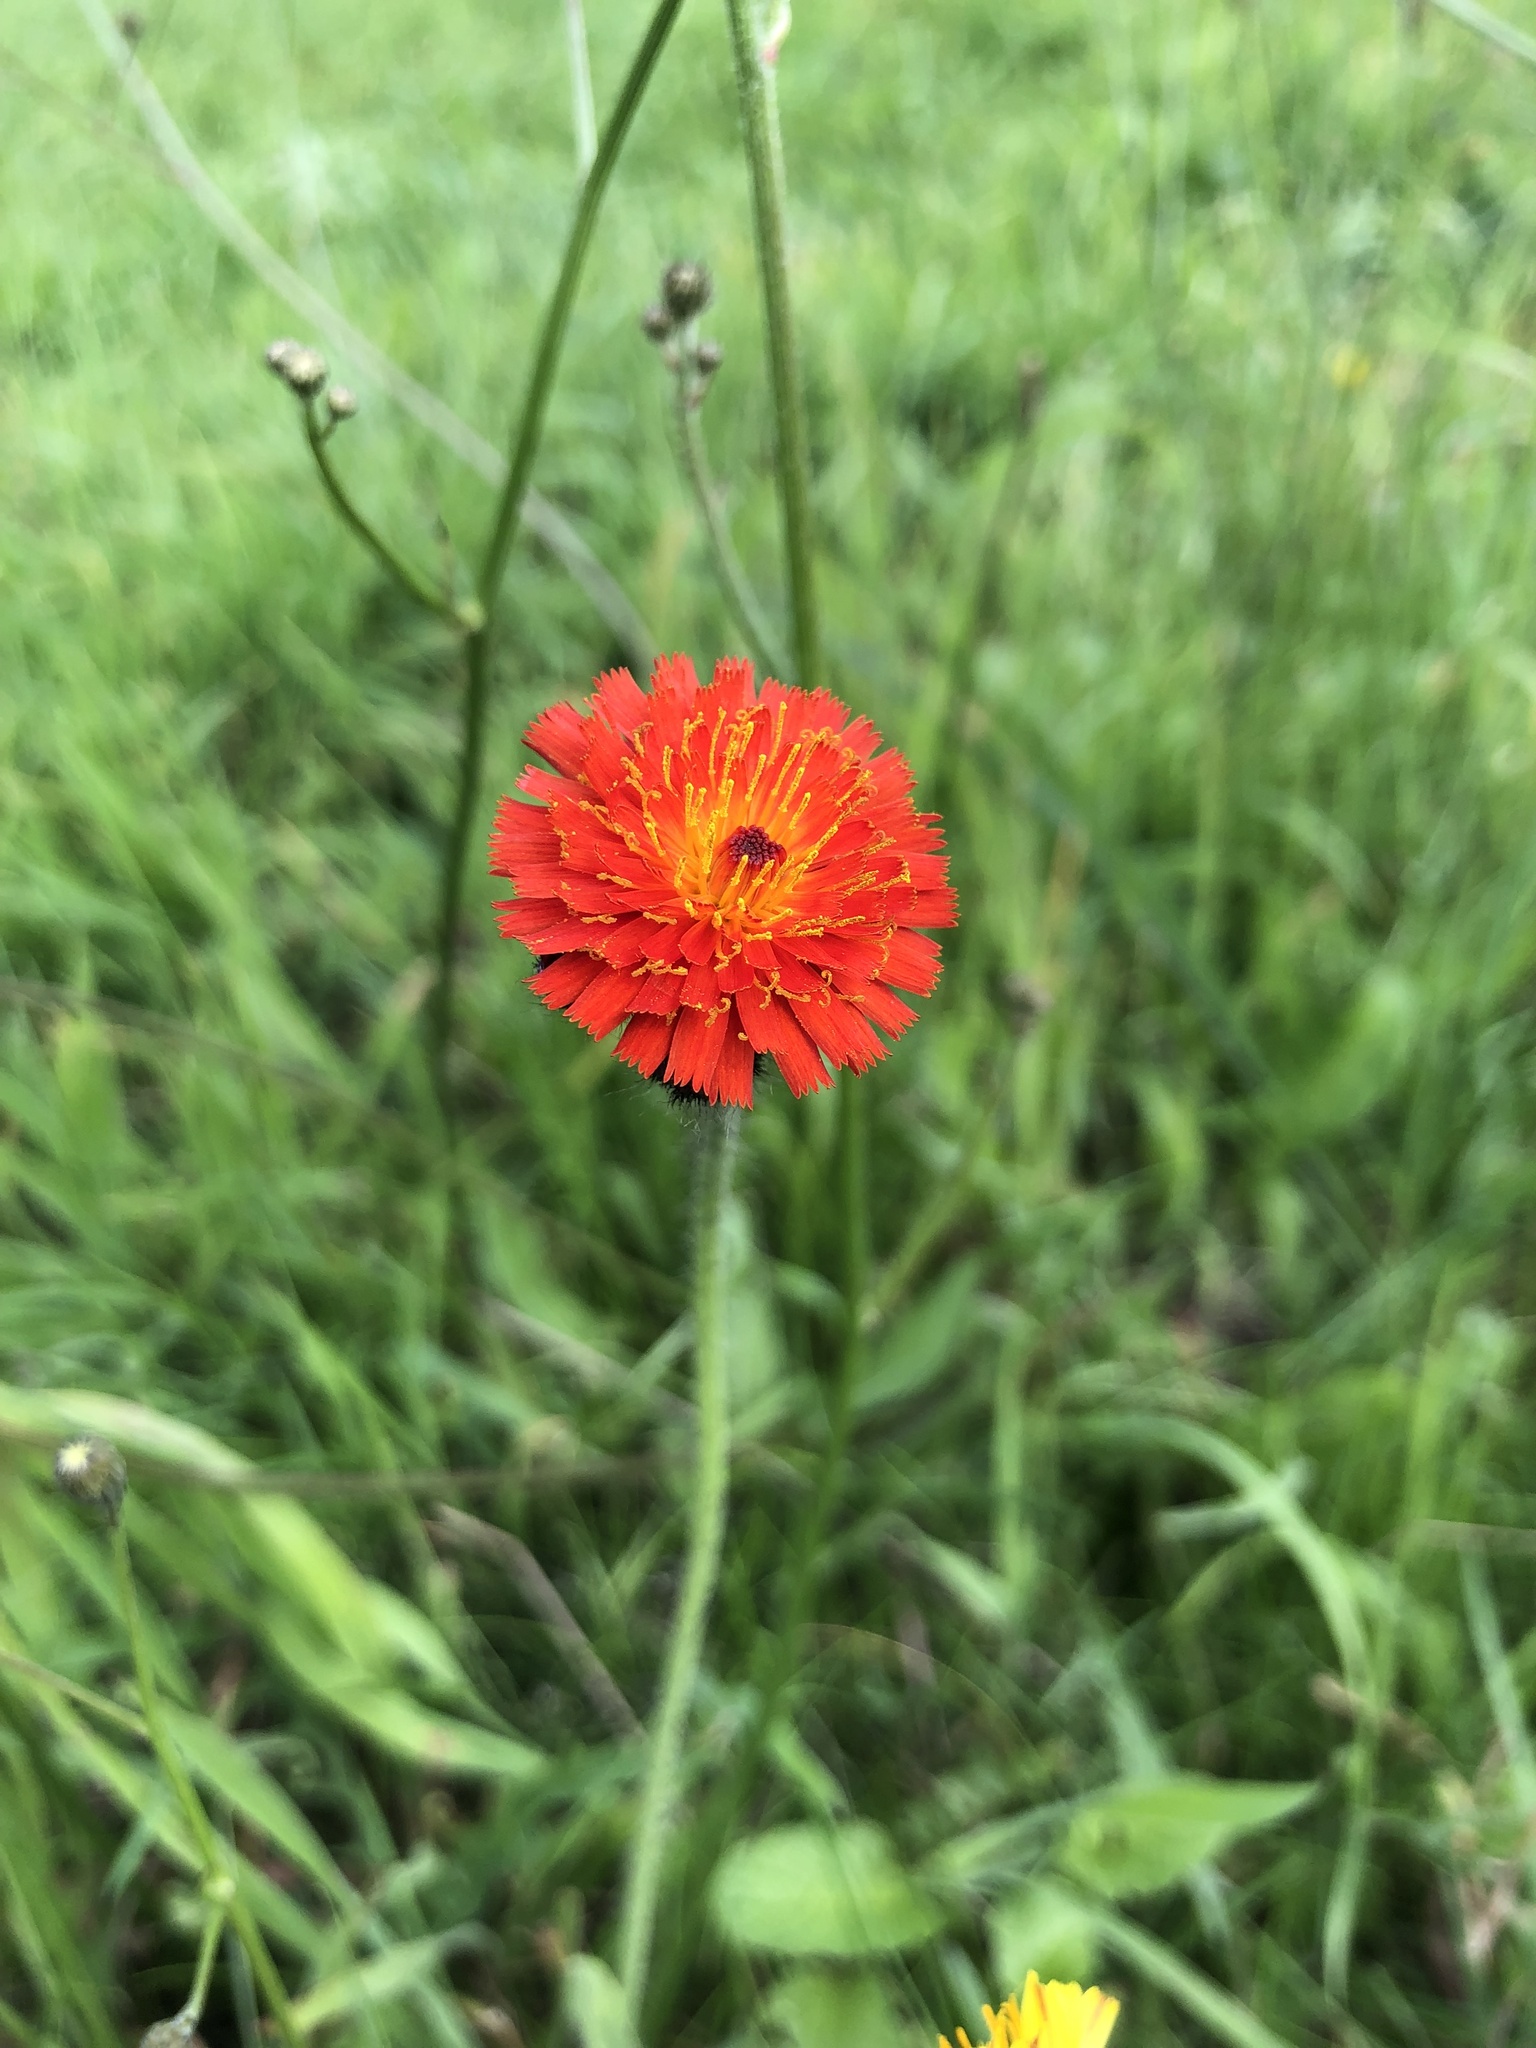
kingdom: Plantae
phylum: Tracheophyta
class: Magnoliopsida
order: Asterales
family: Asteraceae
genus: Pilosella
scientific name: Pilosella aurantiaca
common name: Fox-and-cubs
